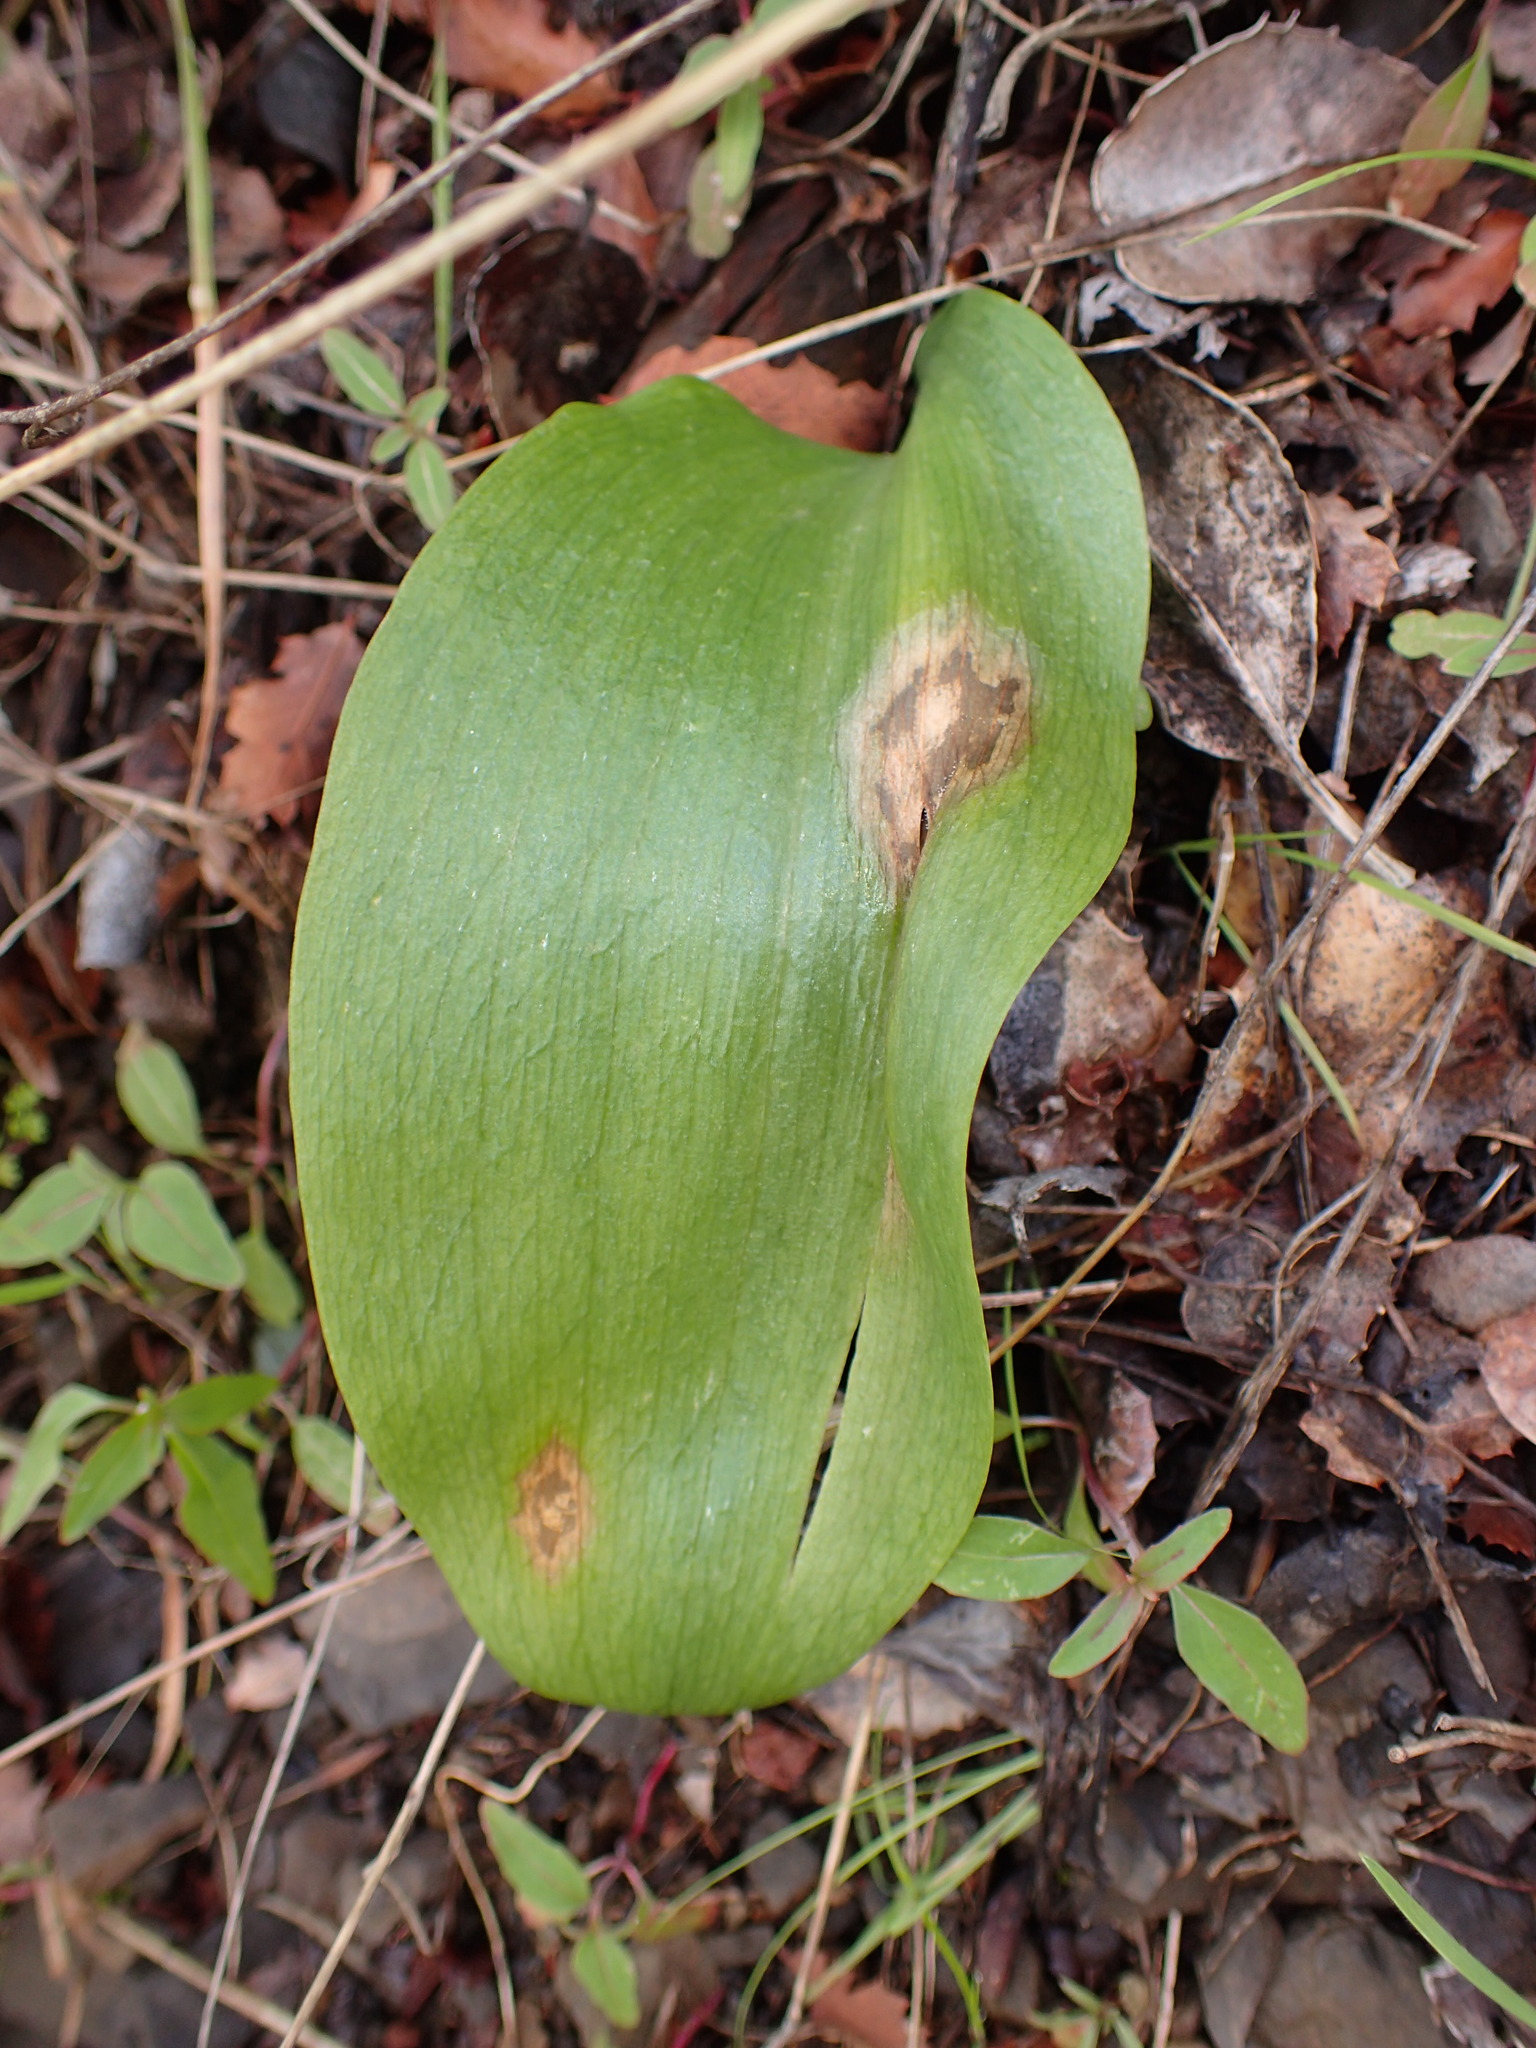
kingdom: Plantae
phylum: Tracheophyta
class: Liliopsida
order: Liliales
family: Liliaceae
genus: Fritillaria
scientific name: Fritillaria ojaiensis
